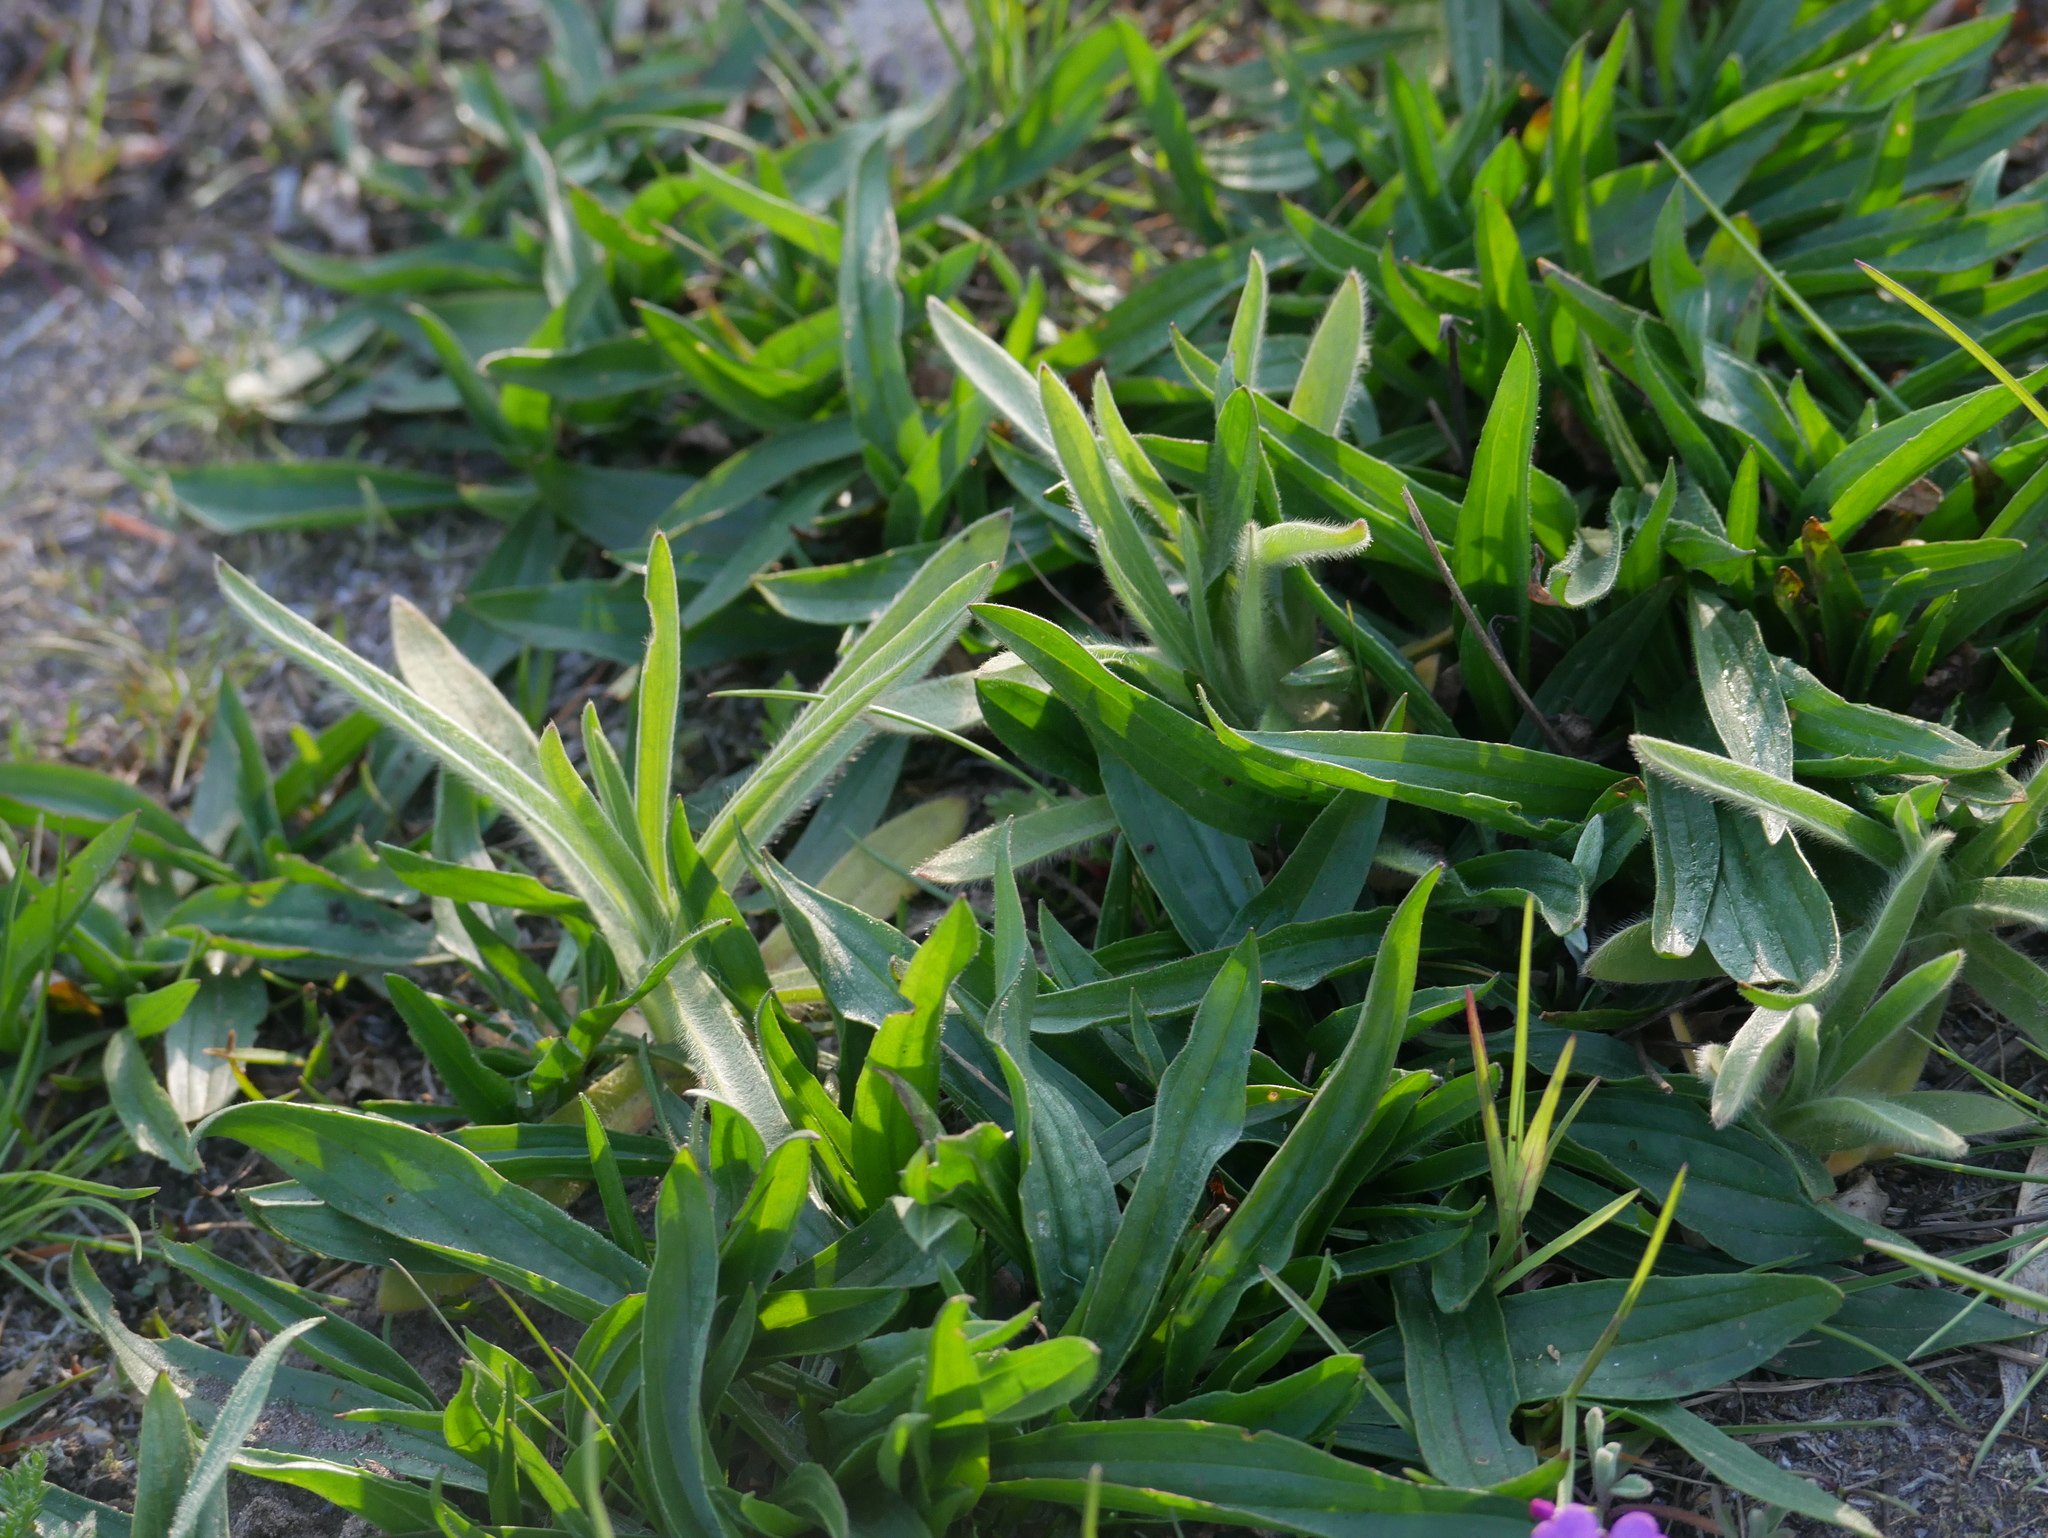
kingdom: Plantae
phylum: Tracheophyta
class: Magnoliopsida
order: Lamiales
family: Plantaginaceae
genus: Plantago
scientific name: Plantago lanceolata
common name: Ribwort plantain
